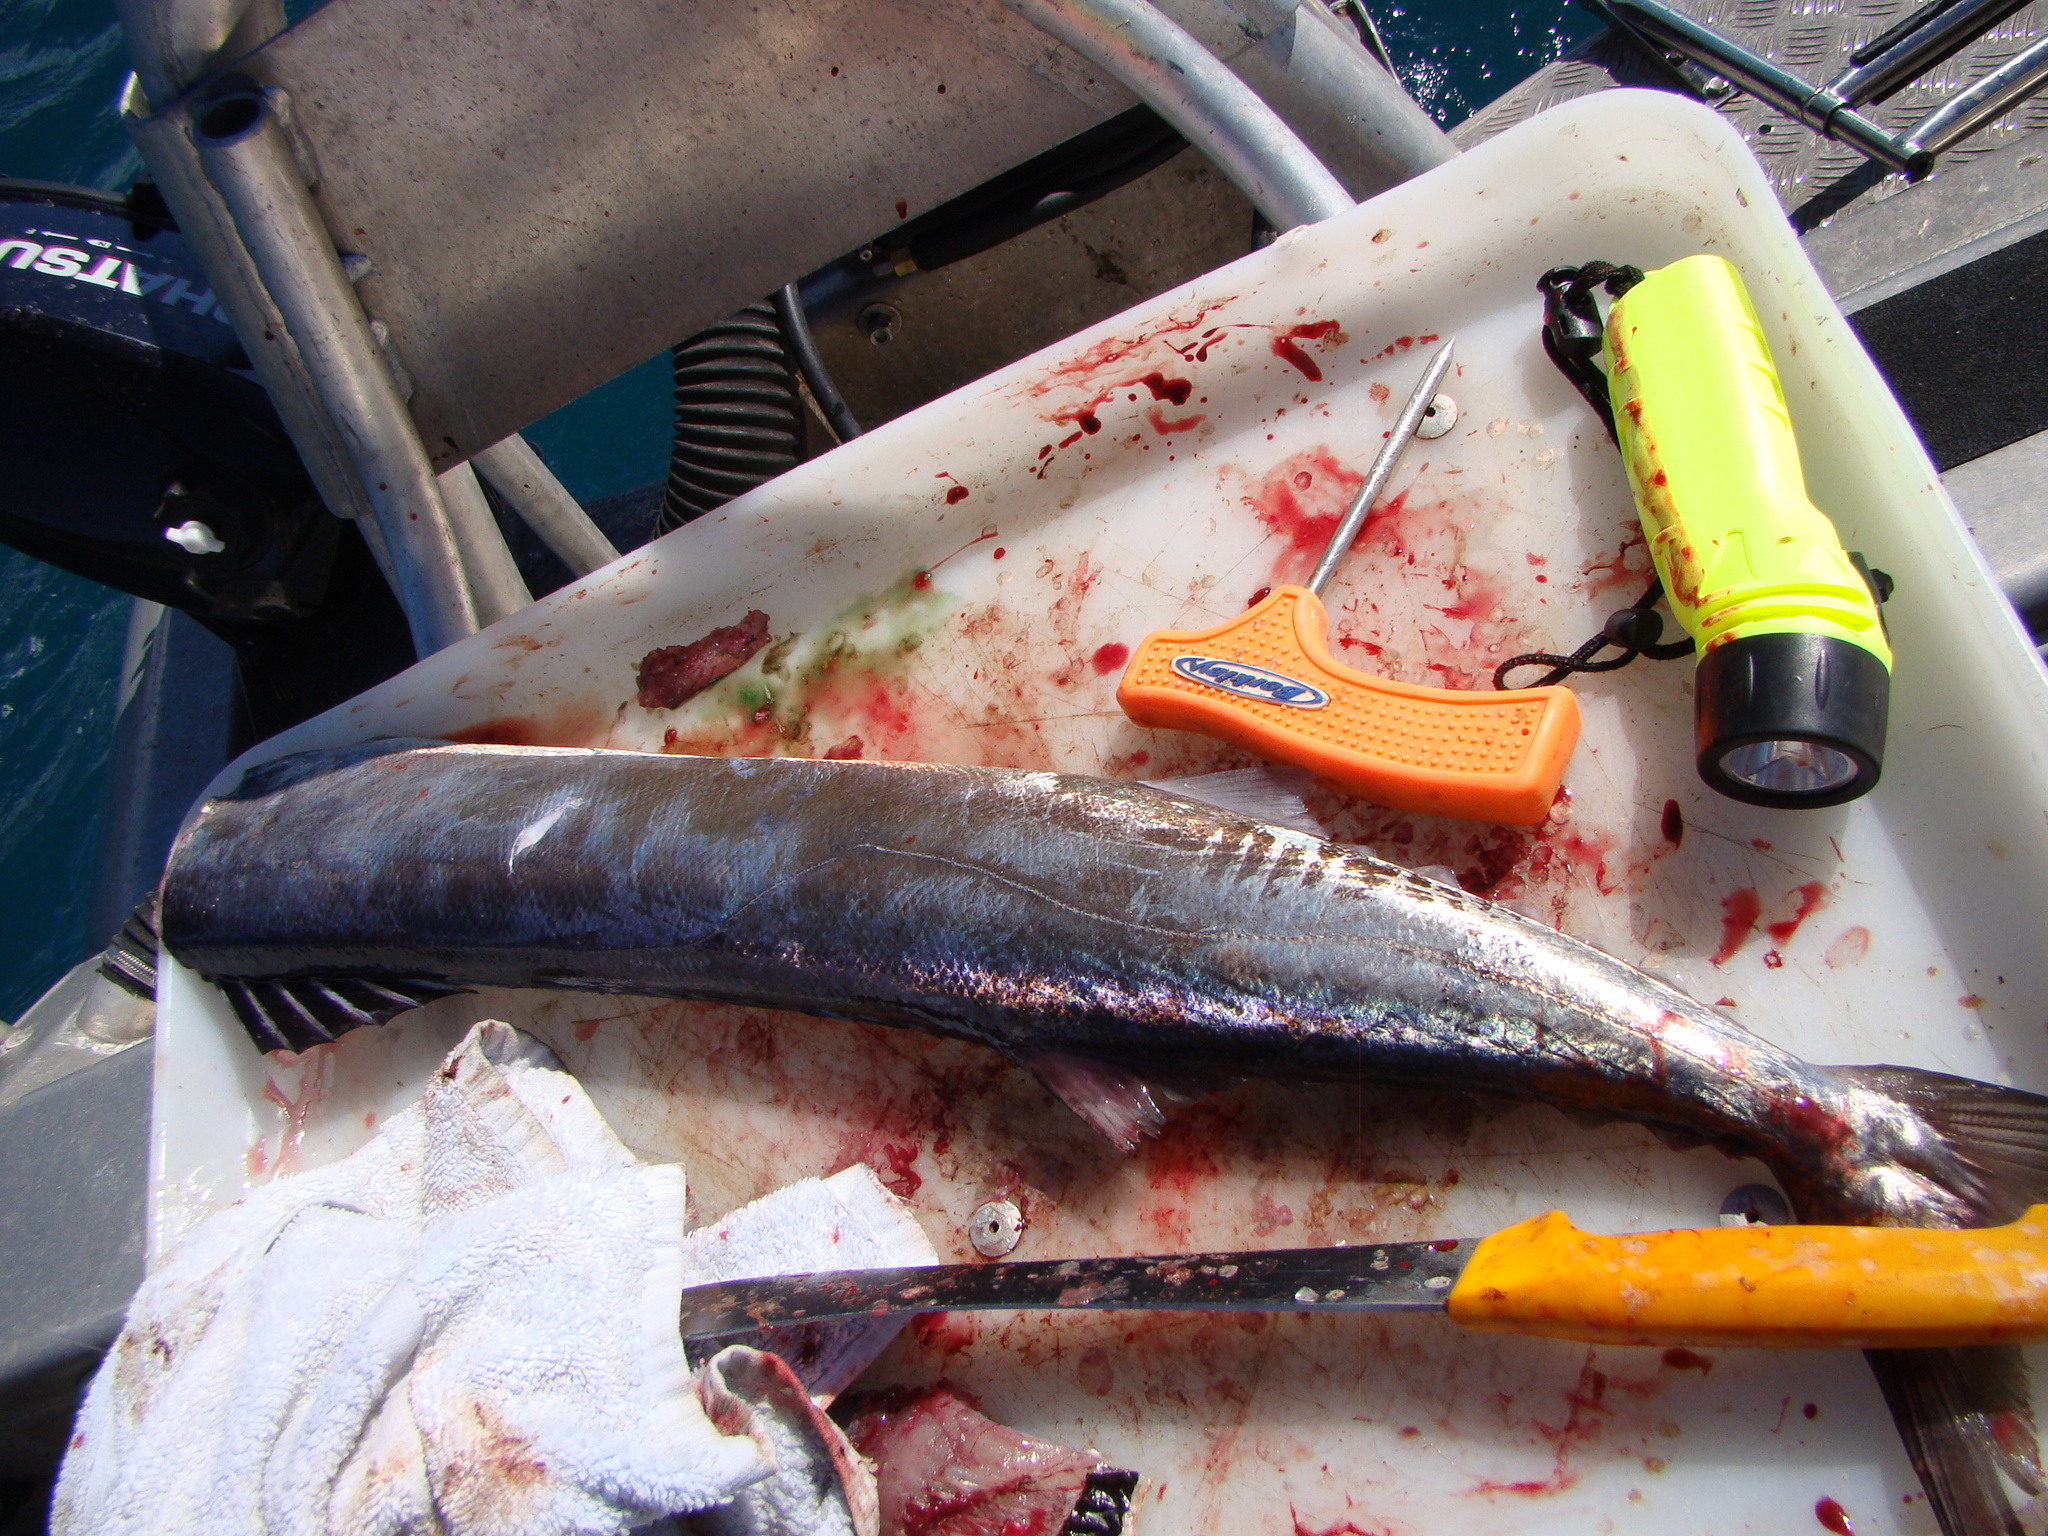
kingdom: Animalia
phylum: Chordata
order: Perciformes
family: Gempylidae
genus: Thyrsites
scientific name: Thyrsites atun
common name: Snoek
